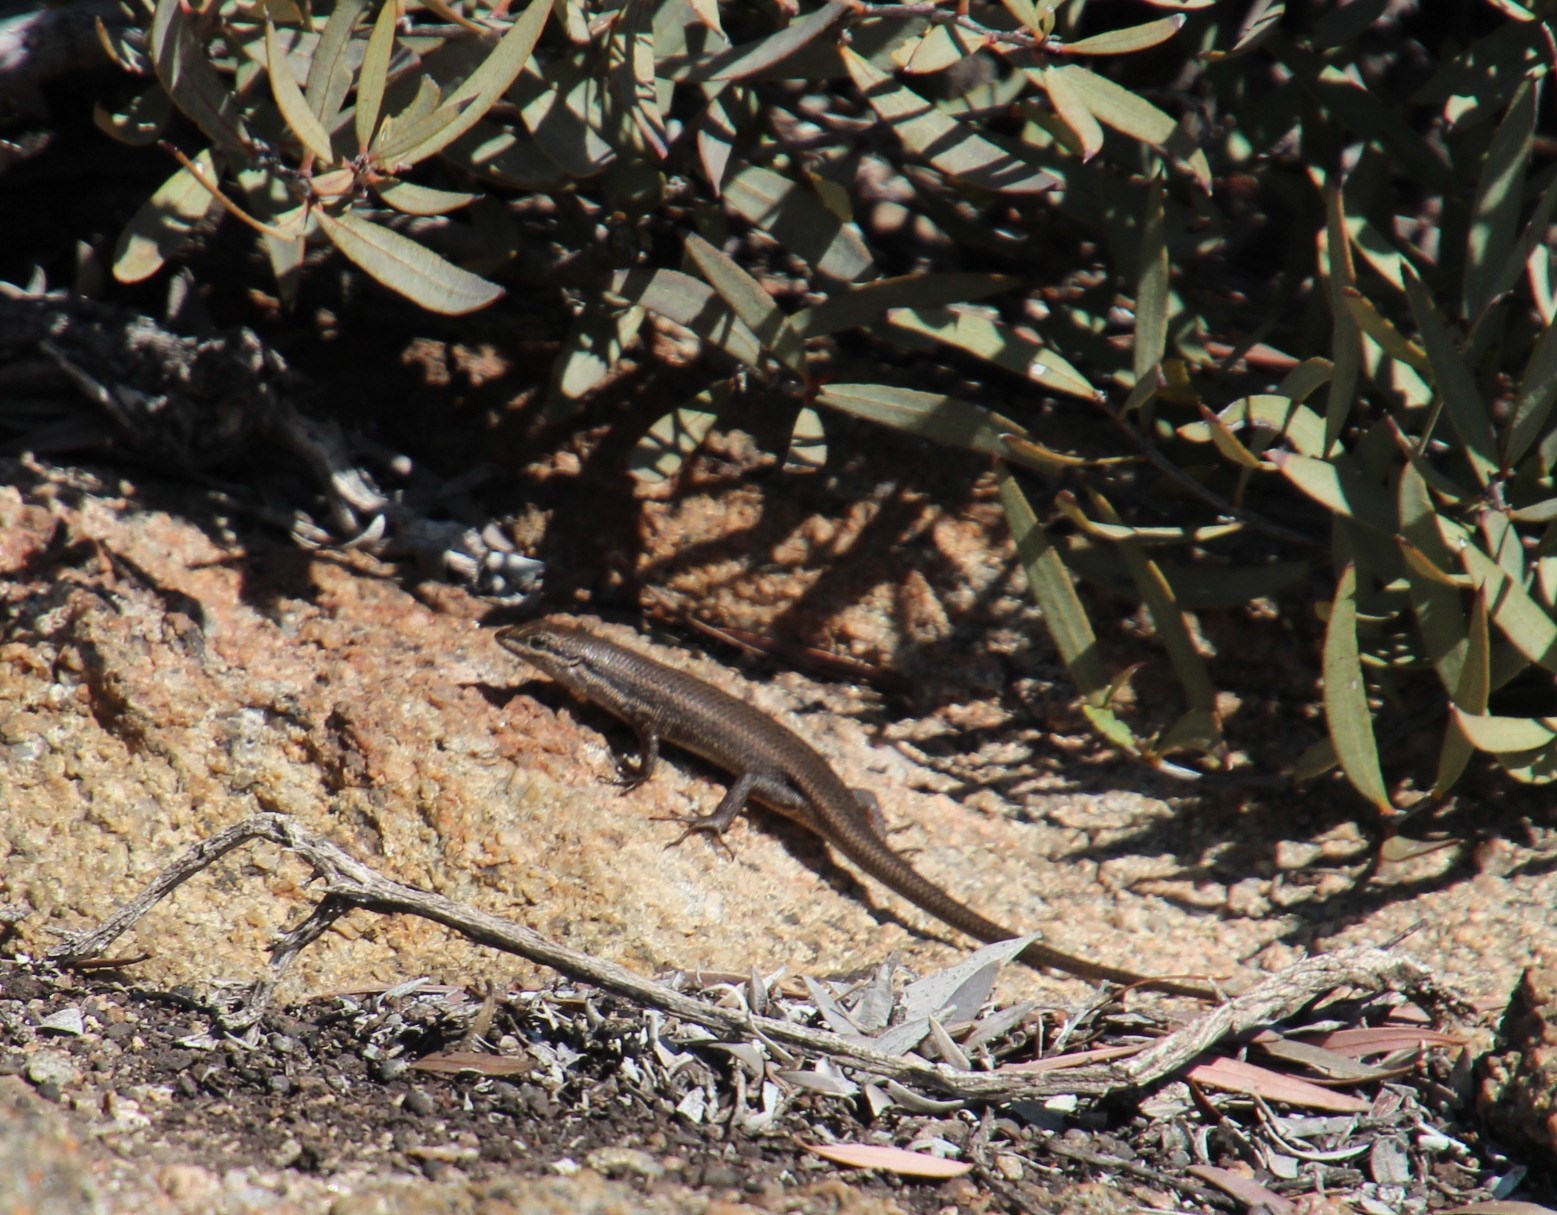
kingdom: Animalia
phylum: Chordata
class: Squamata
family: Scincidae
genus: Trachylepis
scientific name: Trachylepis variegata
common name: Variegated skink
